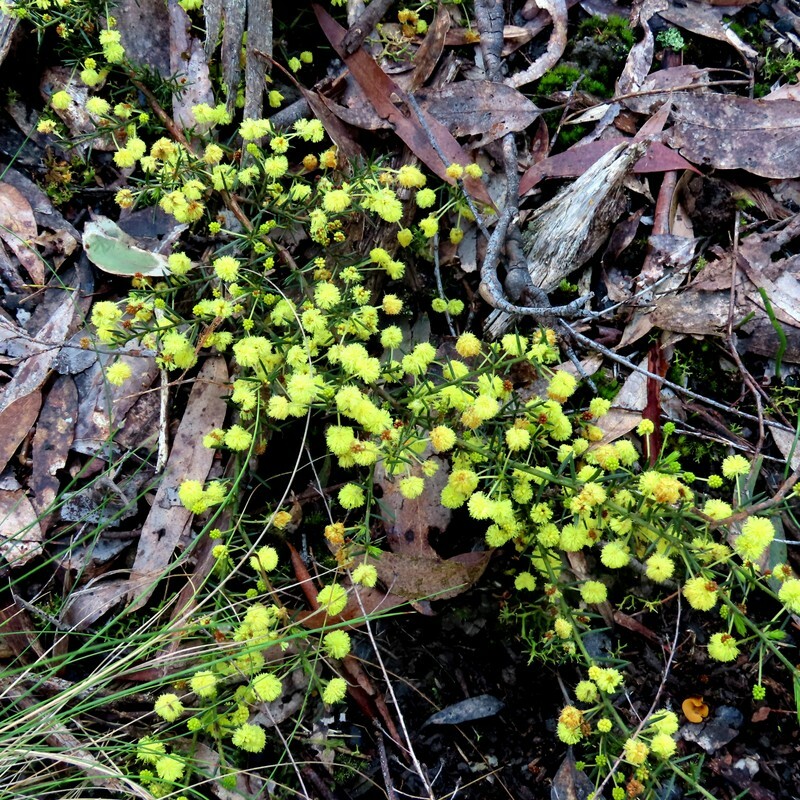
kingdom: Plantae
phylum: Tracheophyta
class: Magnoliopsida
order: Fabales
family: Fabaceae
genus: Acacia
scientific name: Acacia aculeatissima
